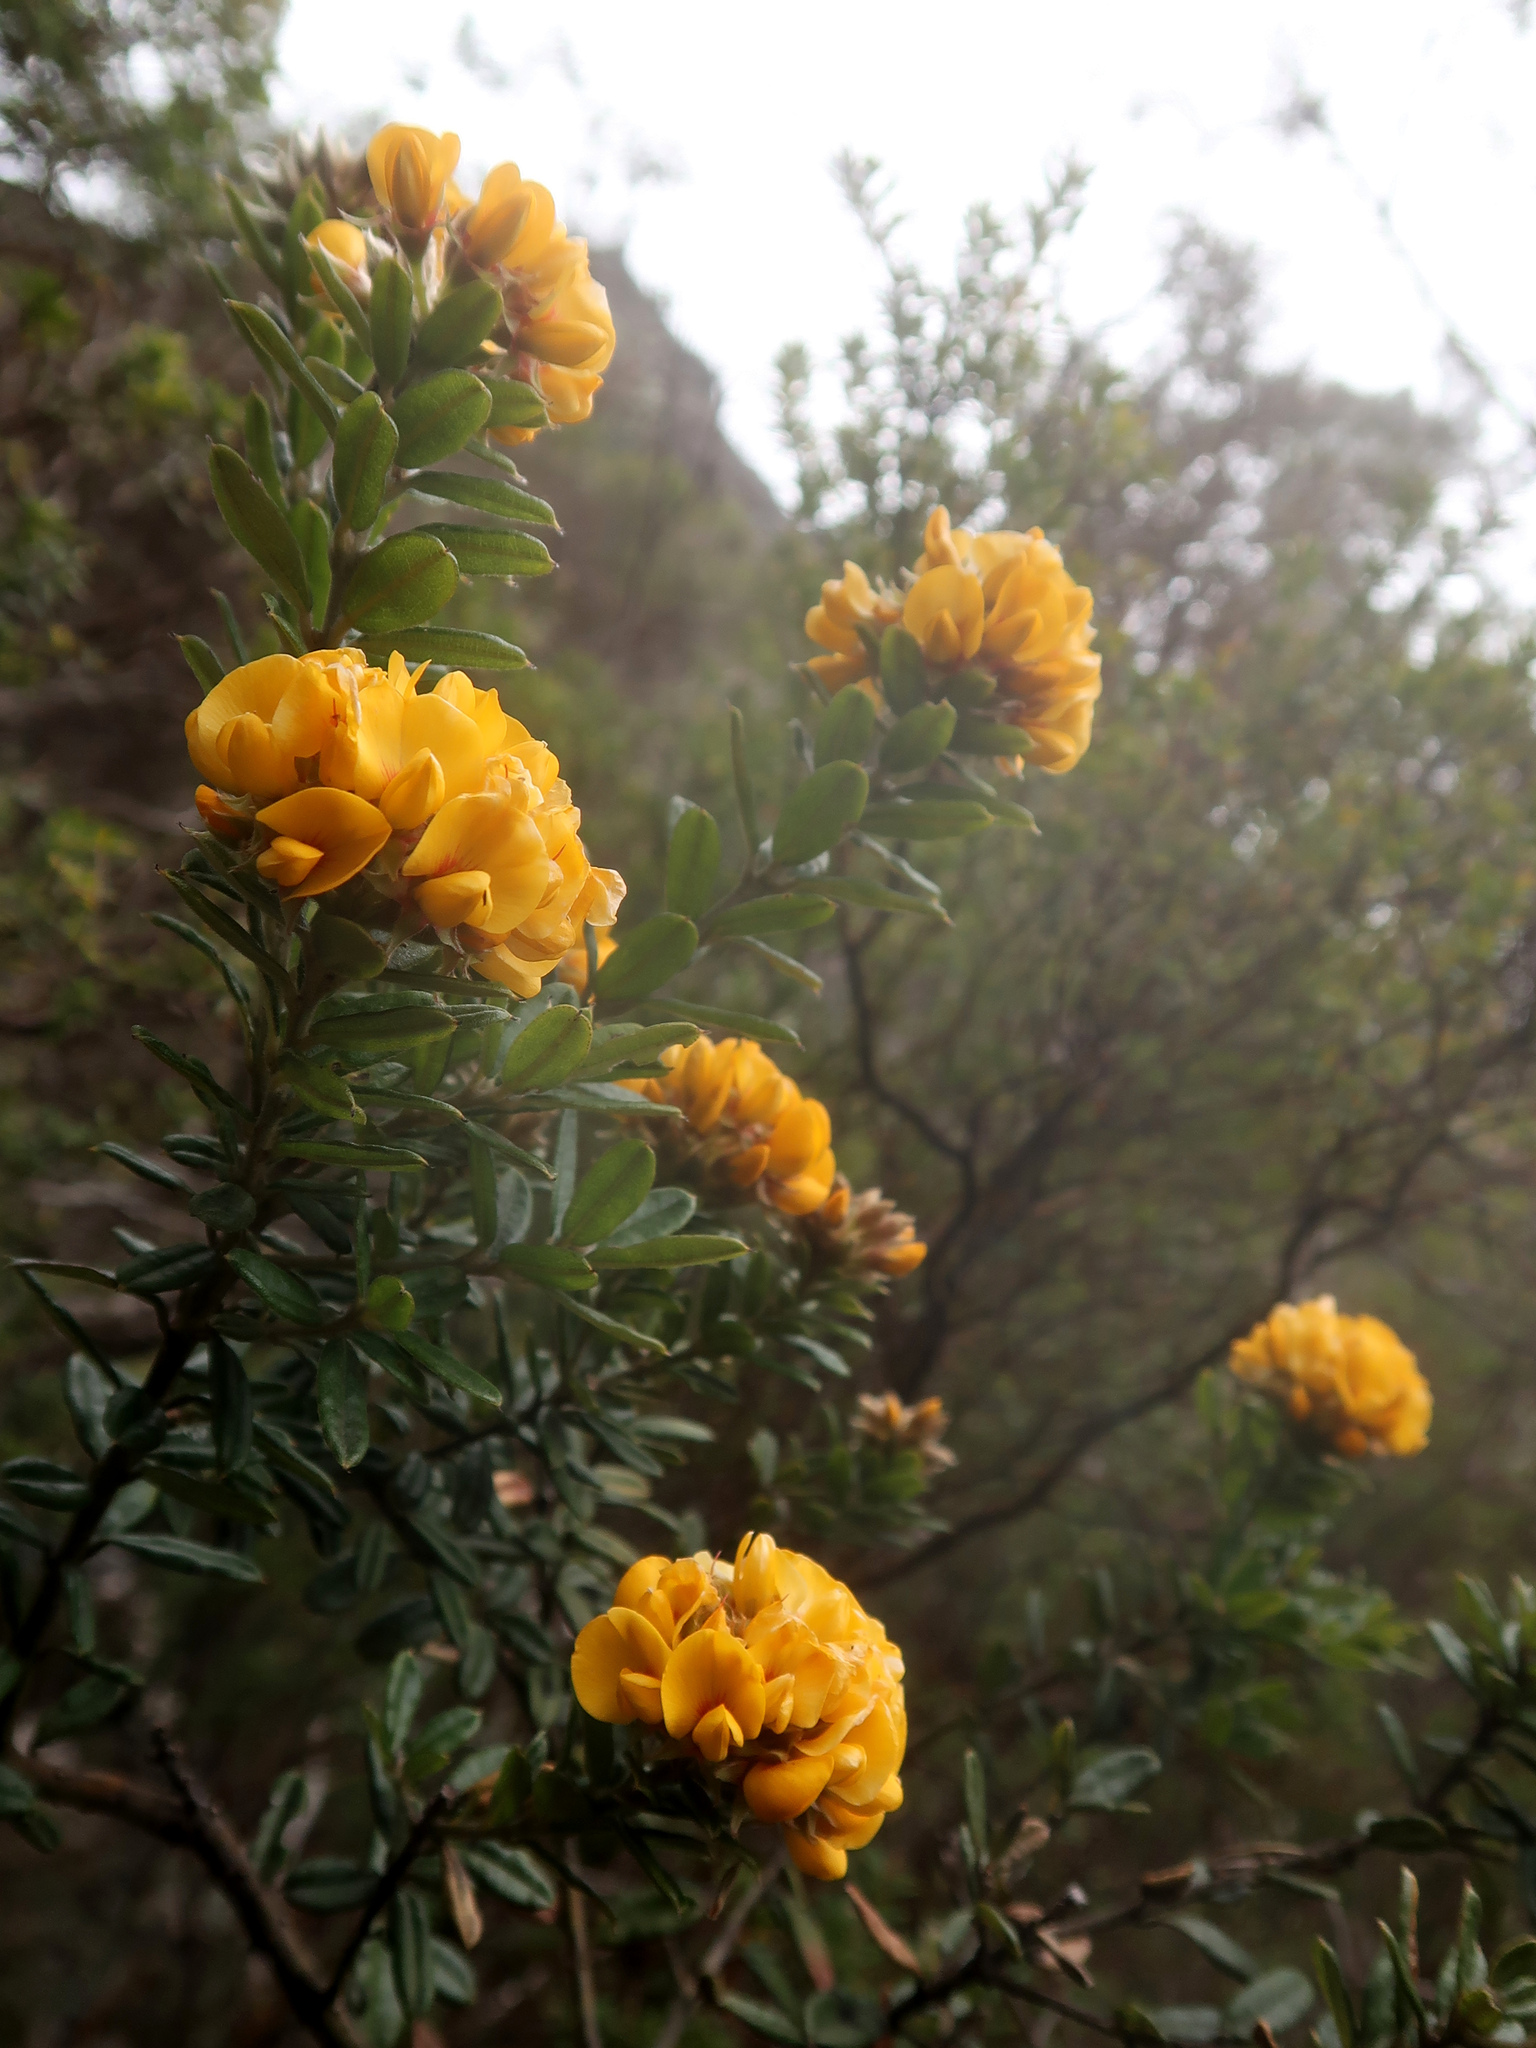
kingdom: Plantae
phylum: Tracheophyta
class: Magnoliopsida
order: Fabales
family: Fabaceae
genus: Oxylobium
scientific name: Oxylobium ellipticum
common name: Golden shaggy-pea
